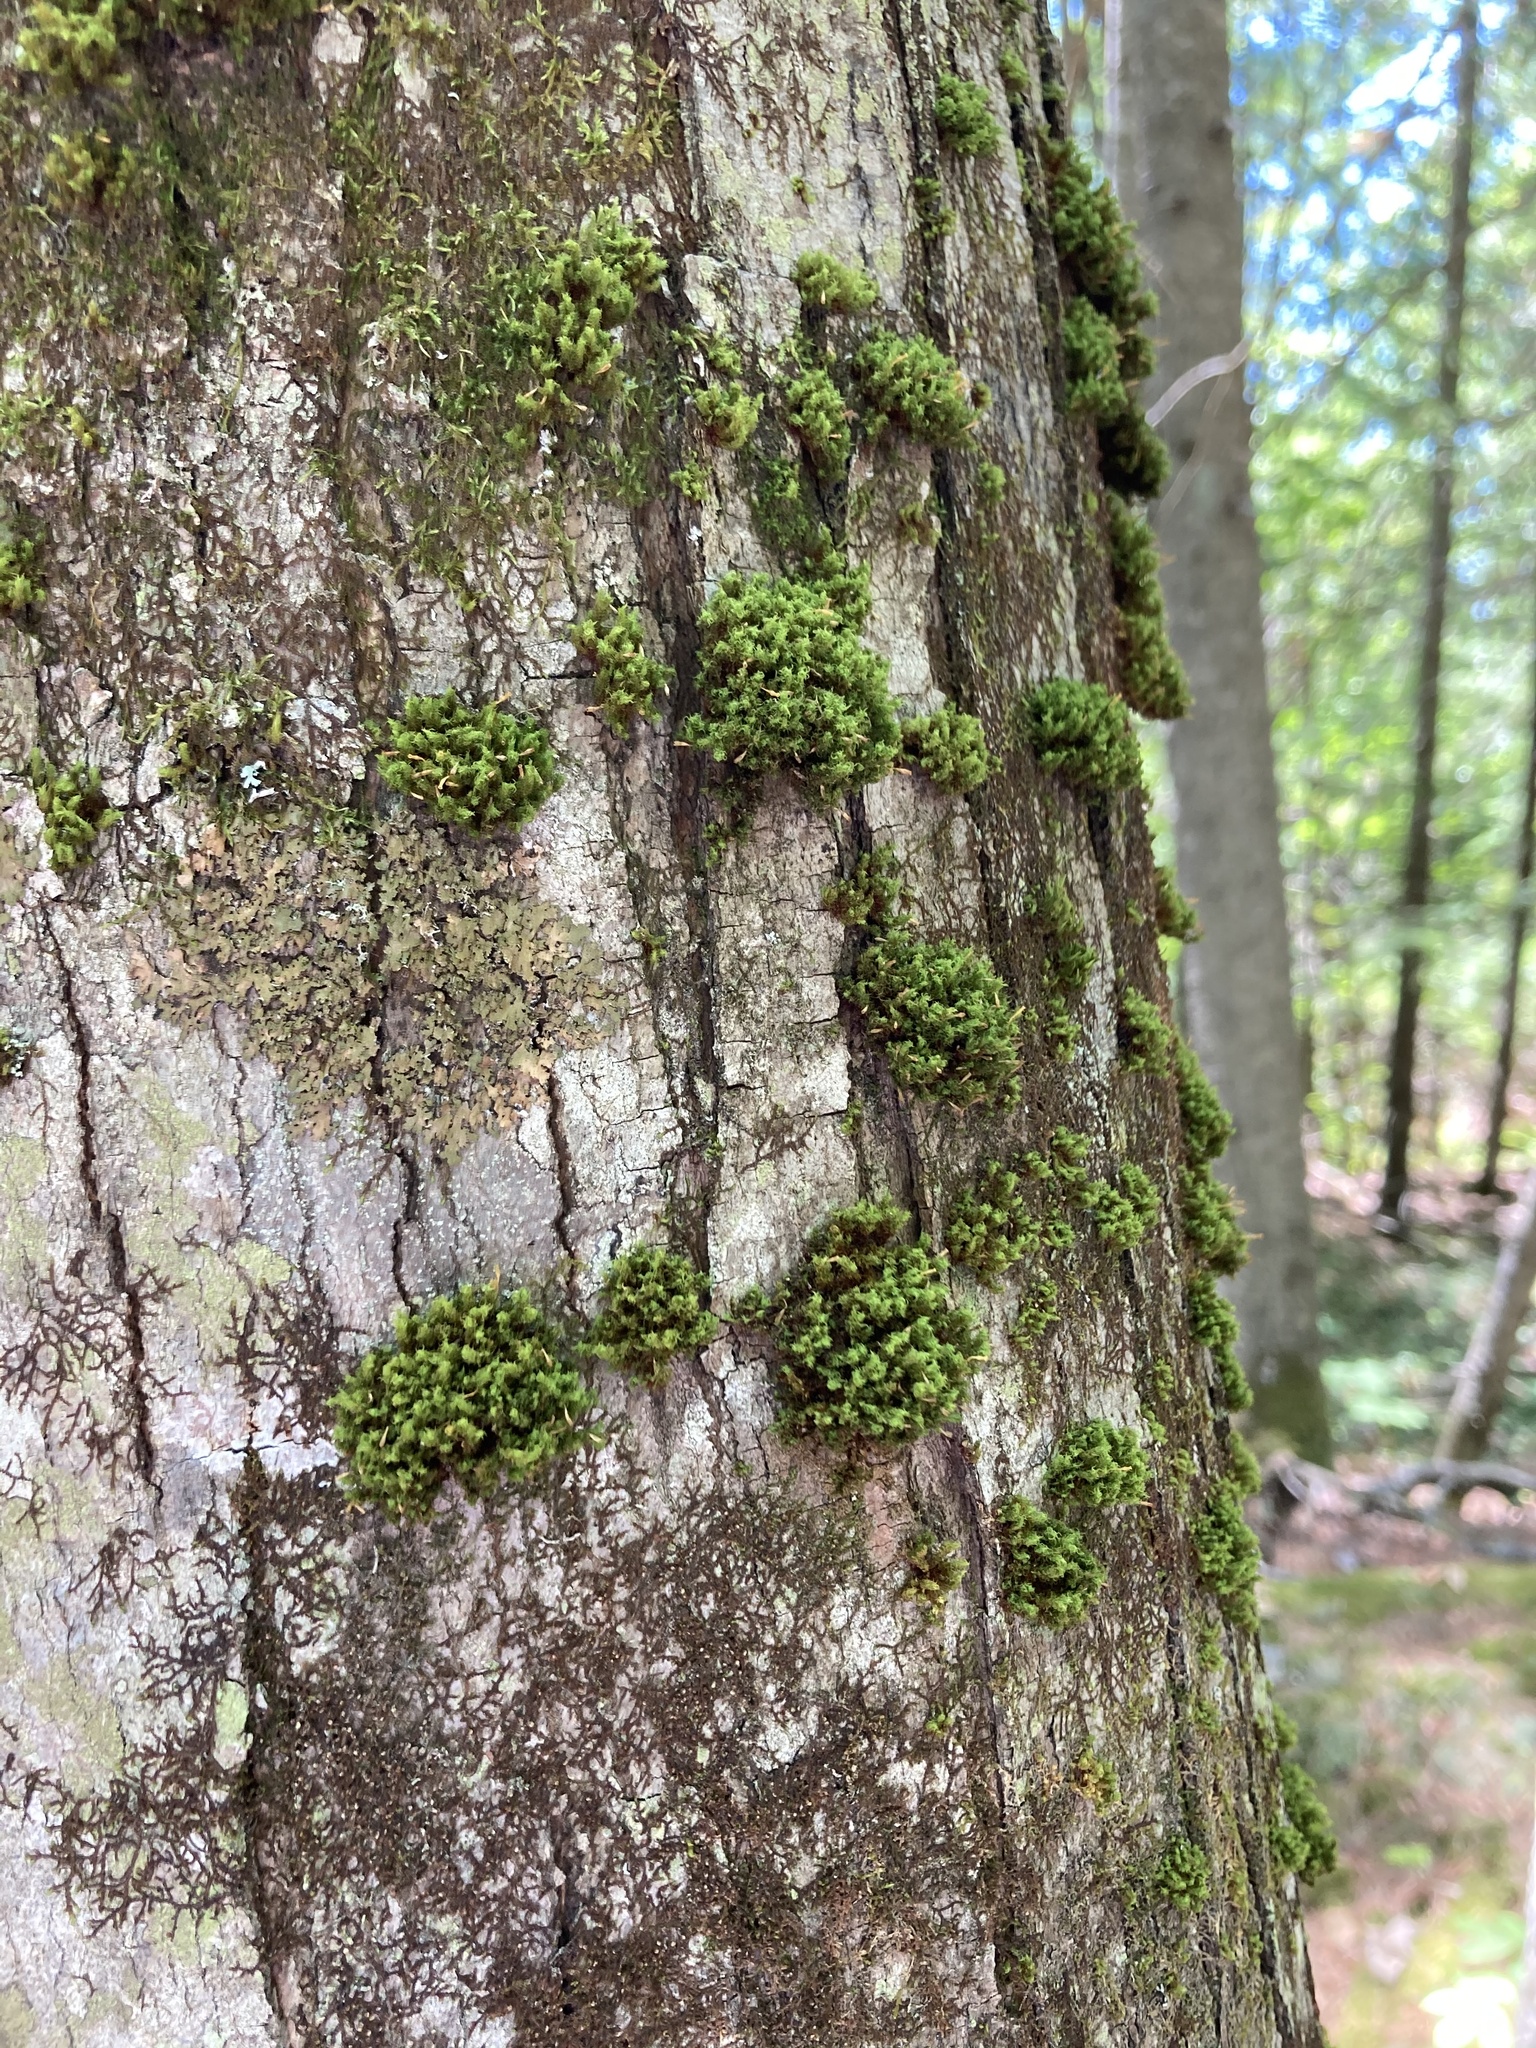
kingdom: Plantae
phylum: Bryophyta
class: Bryopsida
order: Orthotrichales
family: Orthotrichaceae
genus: Ulota
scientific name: Ulota crispa
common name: Crisped pincushion moss
